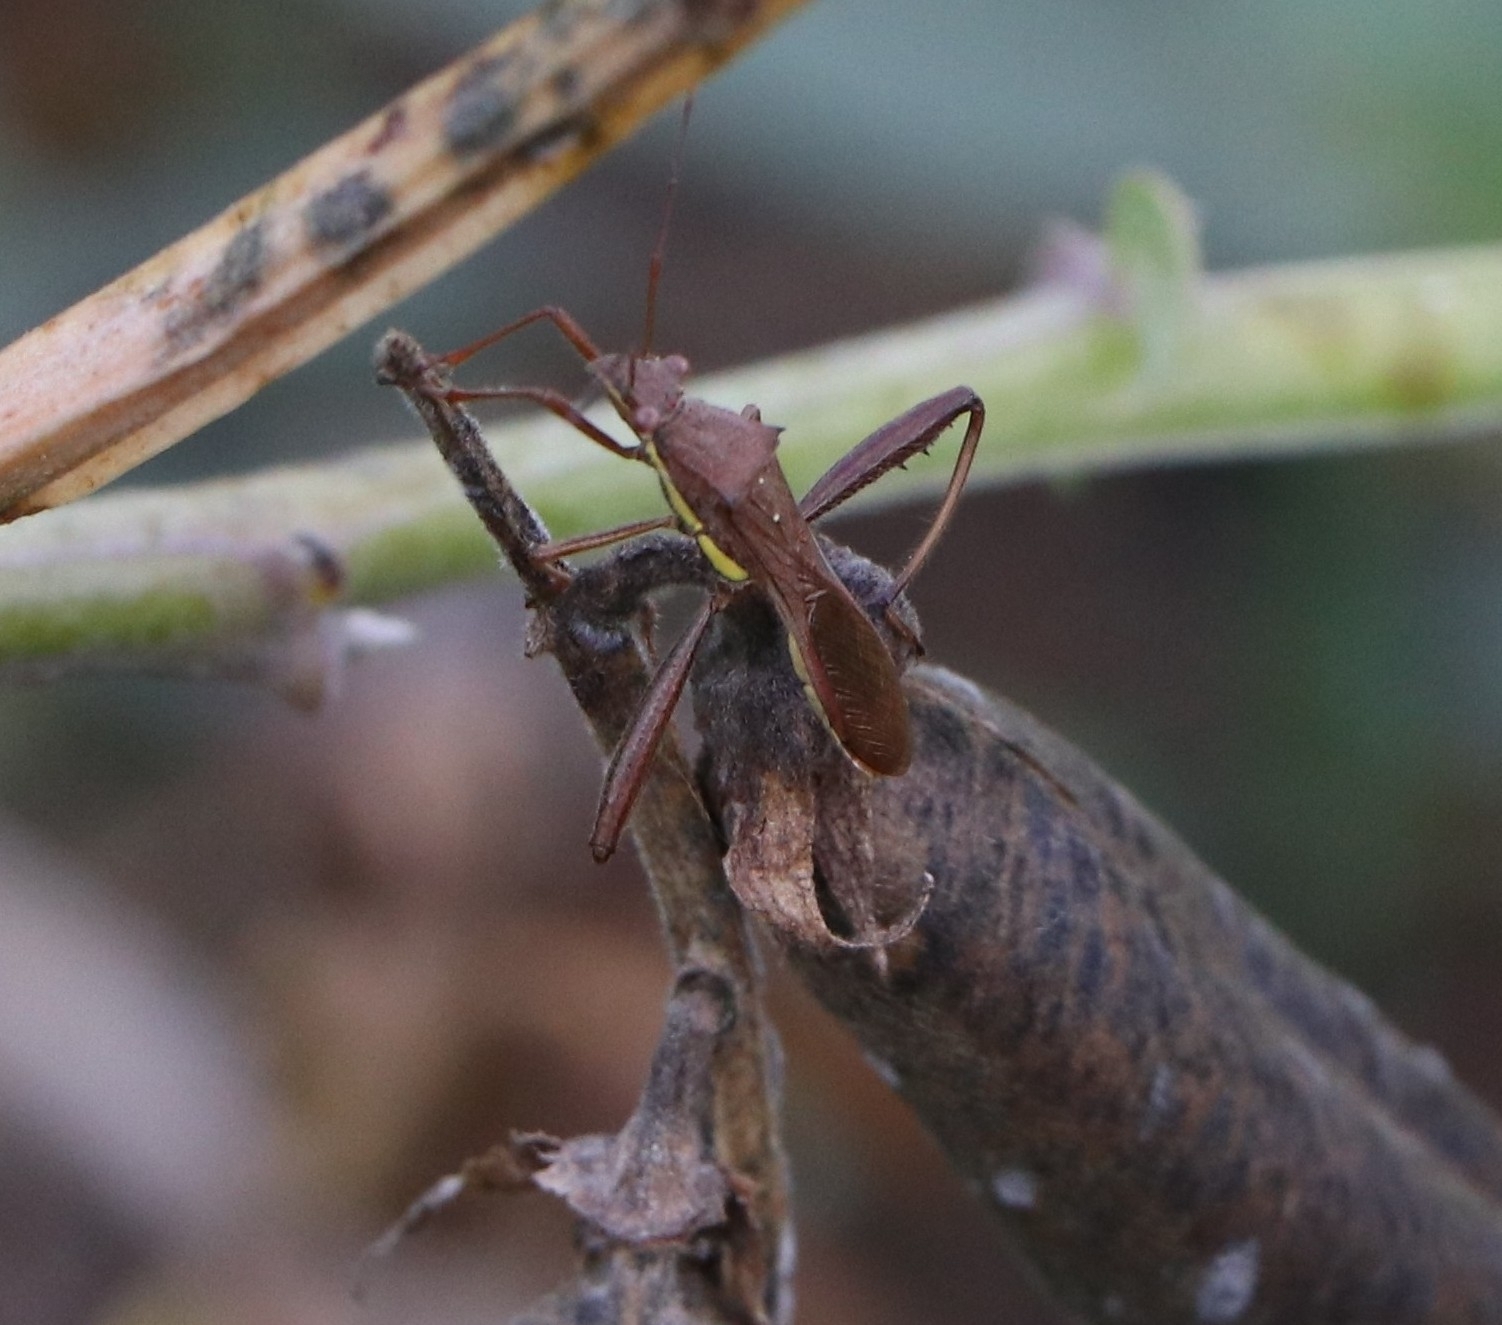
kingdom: Animalia
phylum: Arthropoda
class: Insecta
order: Hemiptera
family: Alydidae
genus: Riptortus
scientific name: Riptortus linearis
